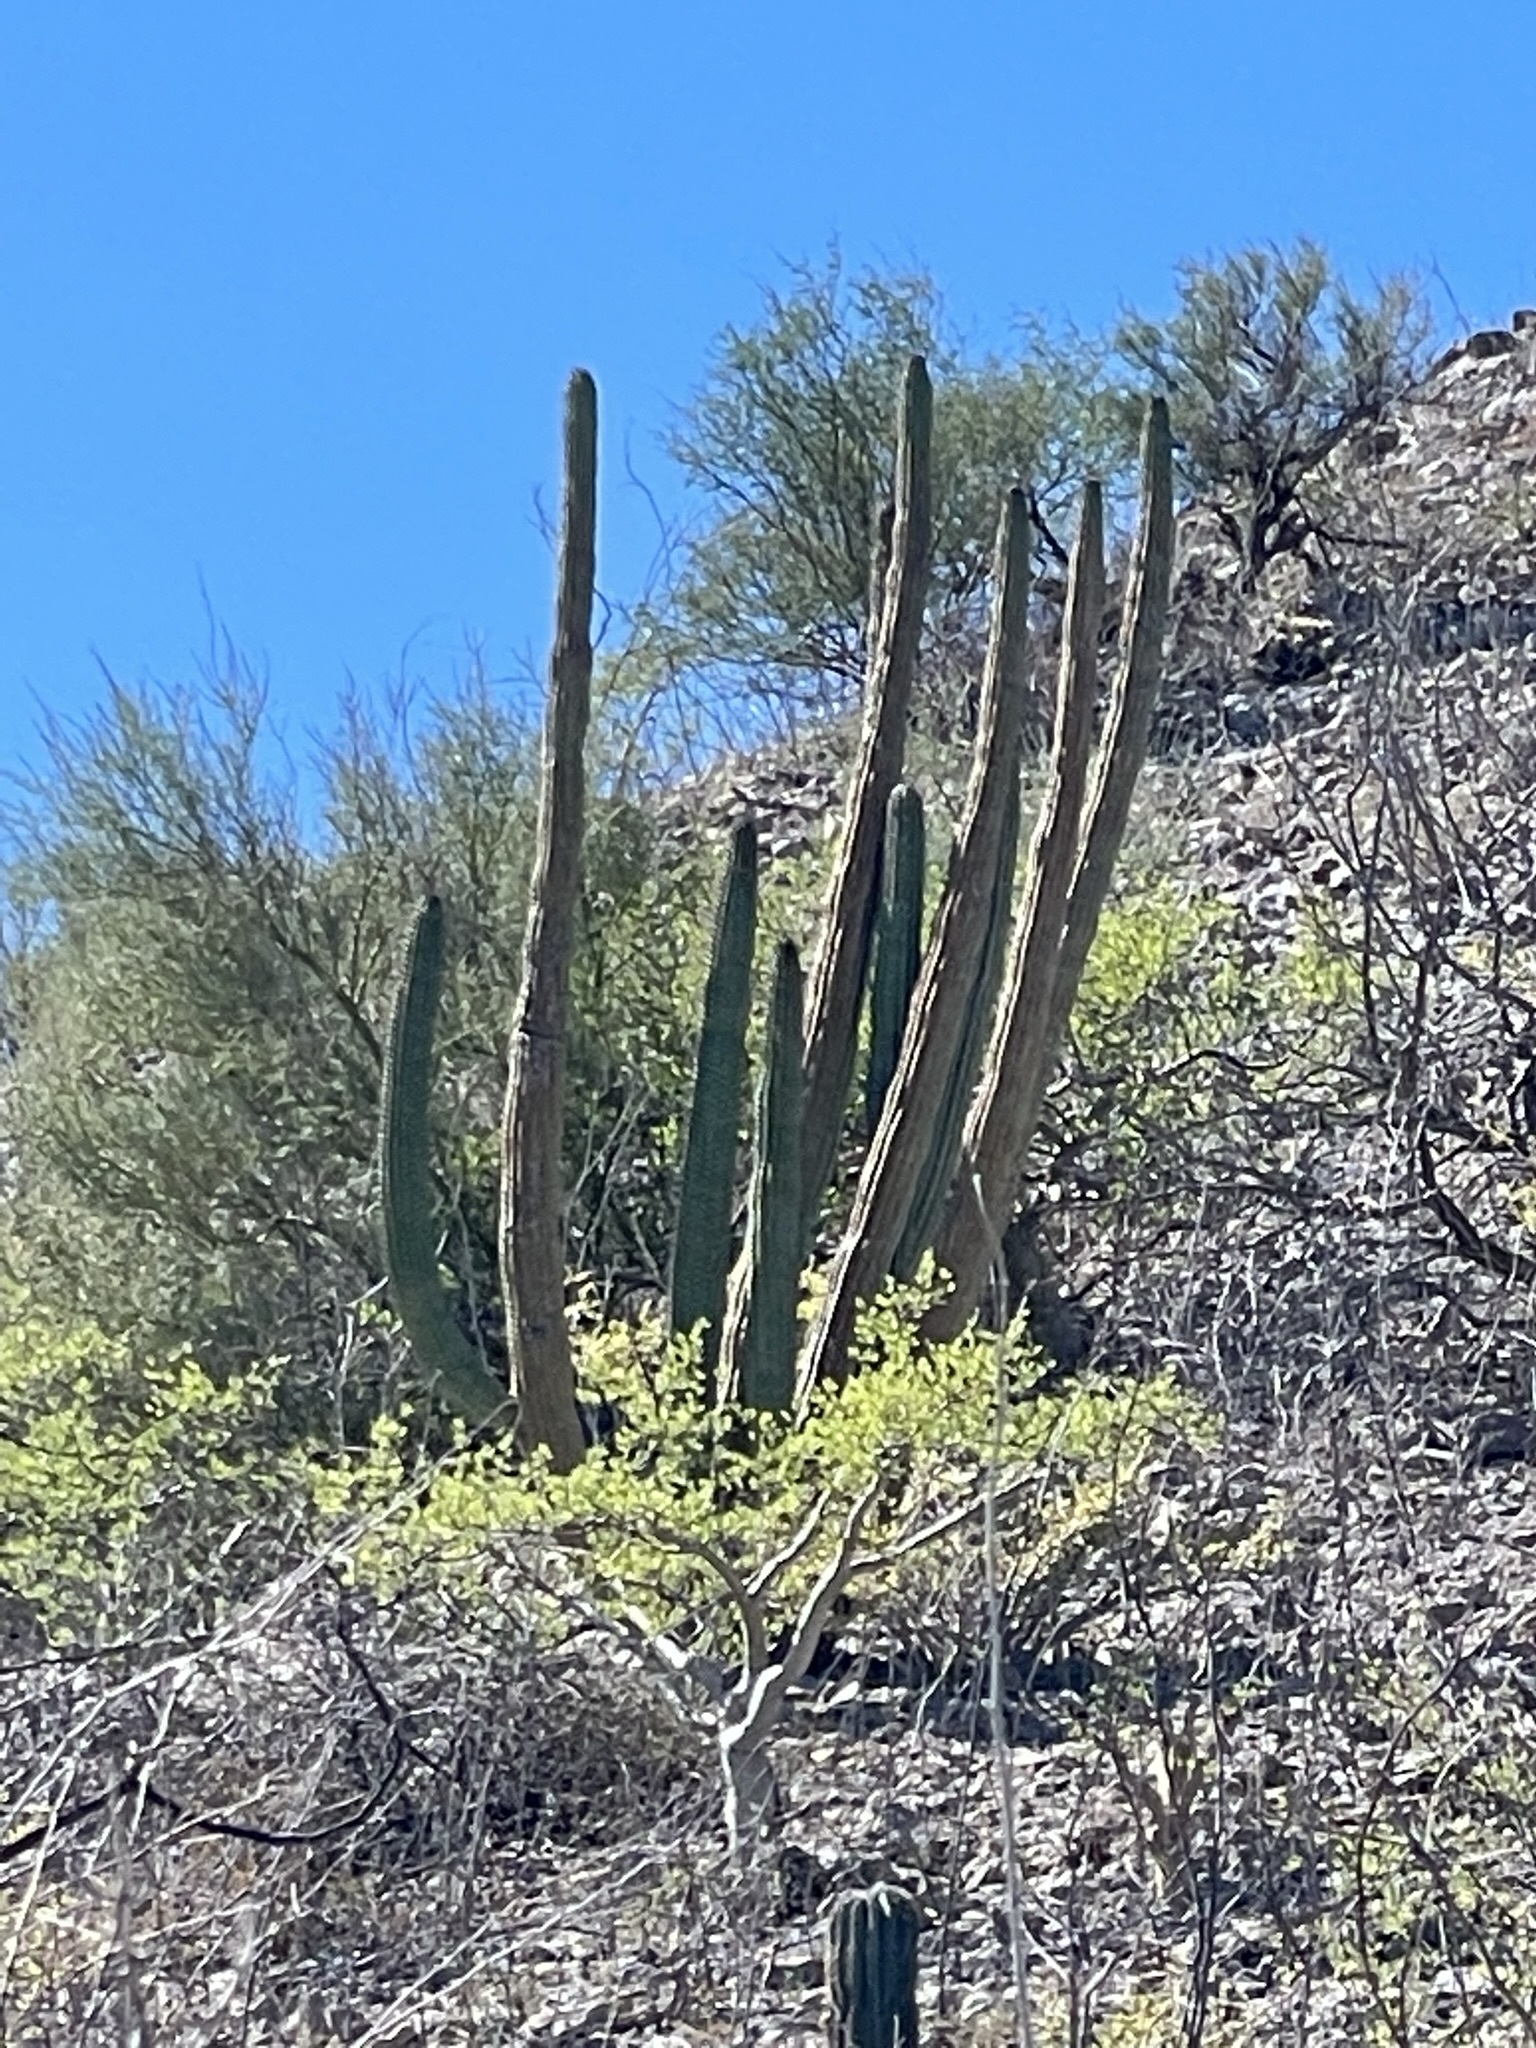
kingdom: Plantae
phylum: Tracheophyta
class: Magnoliopsida
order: Caryophyllales
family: Cactaceae
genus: Stenocereus
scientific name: Stenocereus thurberi
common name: Organ pipe cactus
